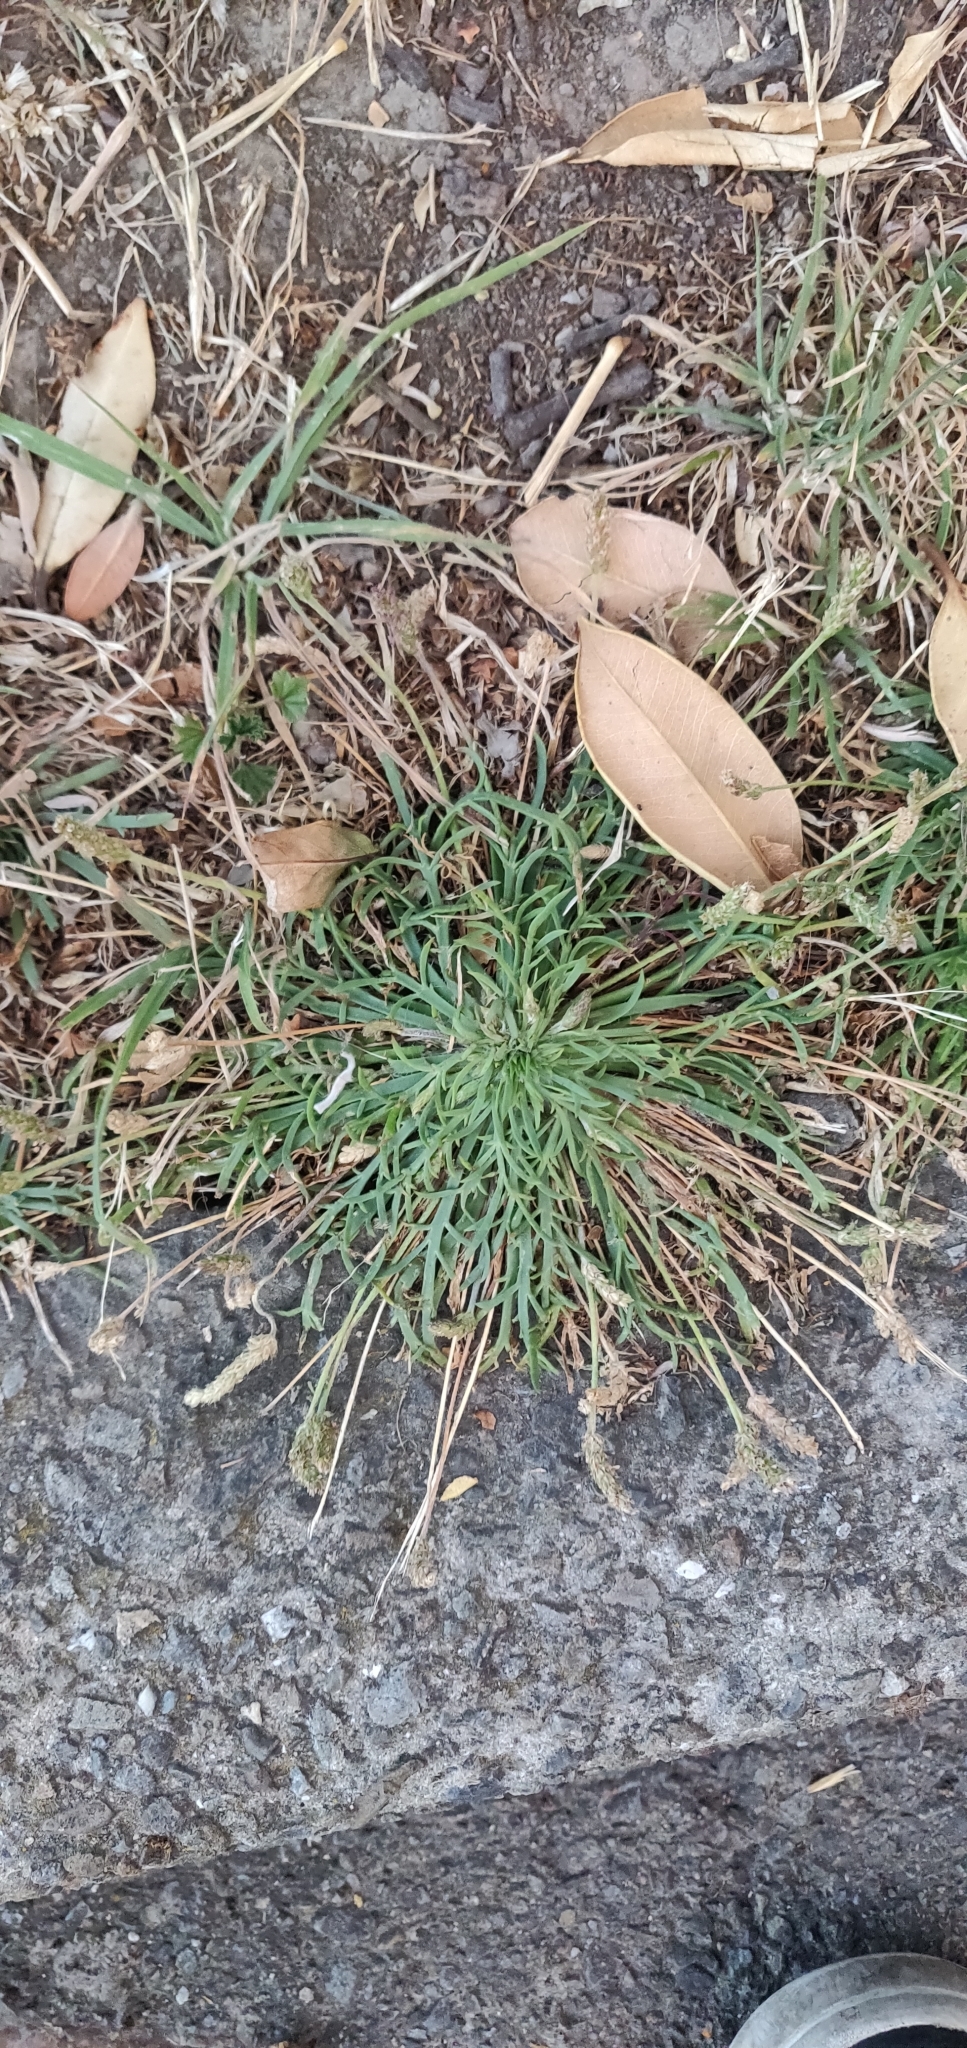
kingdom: Plantae
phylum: Tracheophyta
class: Magnoliopsida
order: Lamiales
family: Plantaginaceae
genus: Plantago
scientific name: Plantago coronopus
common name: Buck's-horn plantain
